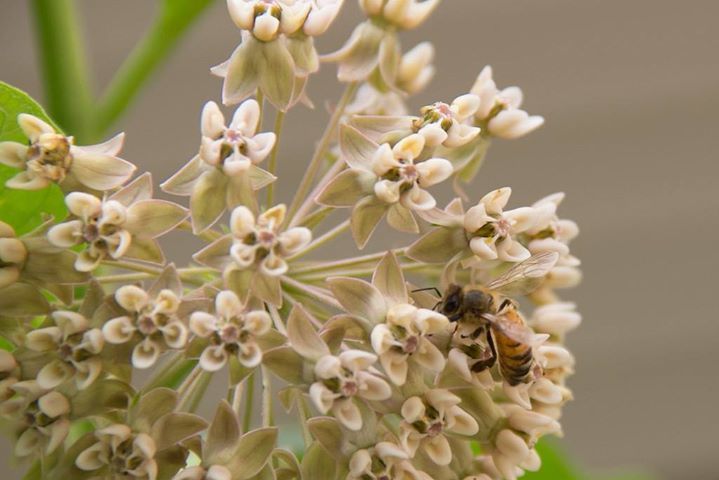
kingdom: Animalia
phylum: Arthropoda
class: Insecta
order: Hymenoptera
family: Apidae
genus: Apis
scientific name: Apis mellifera
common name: Honey bee
